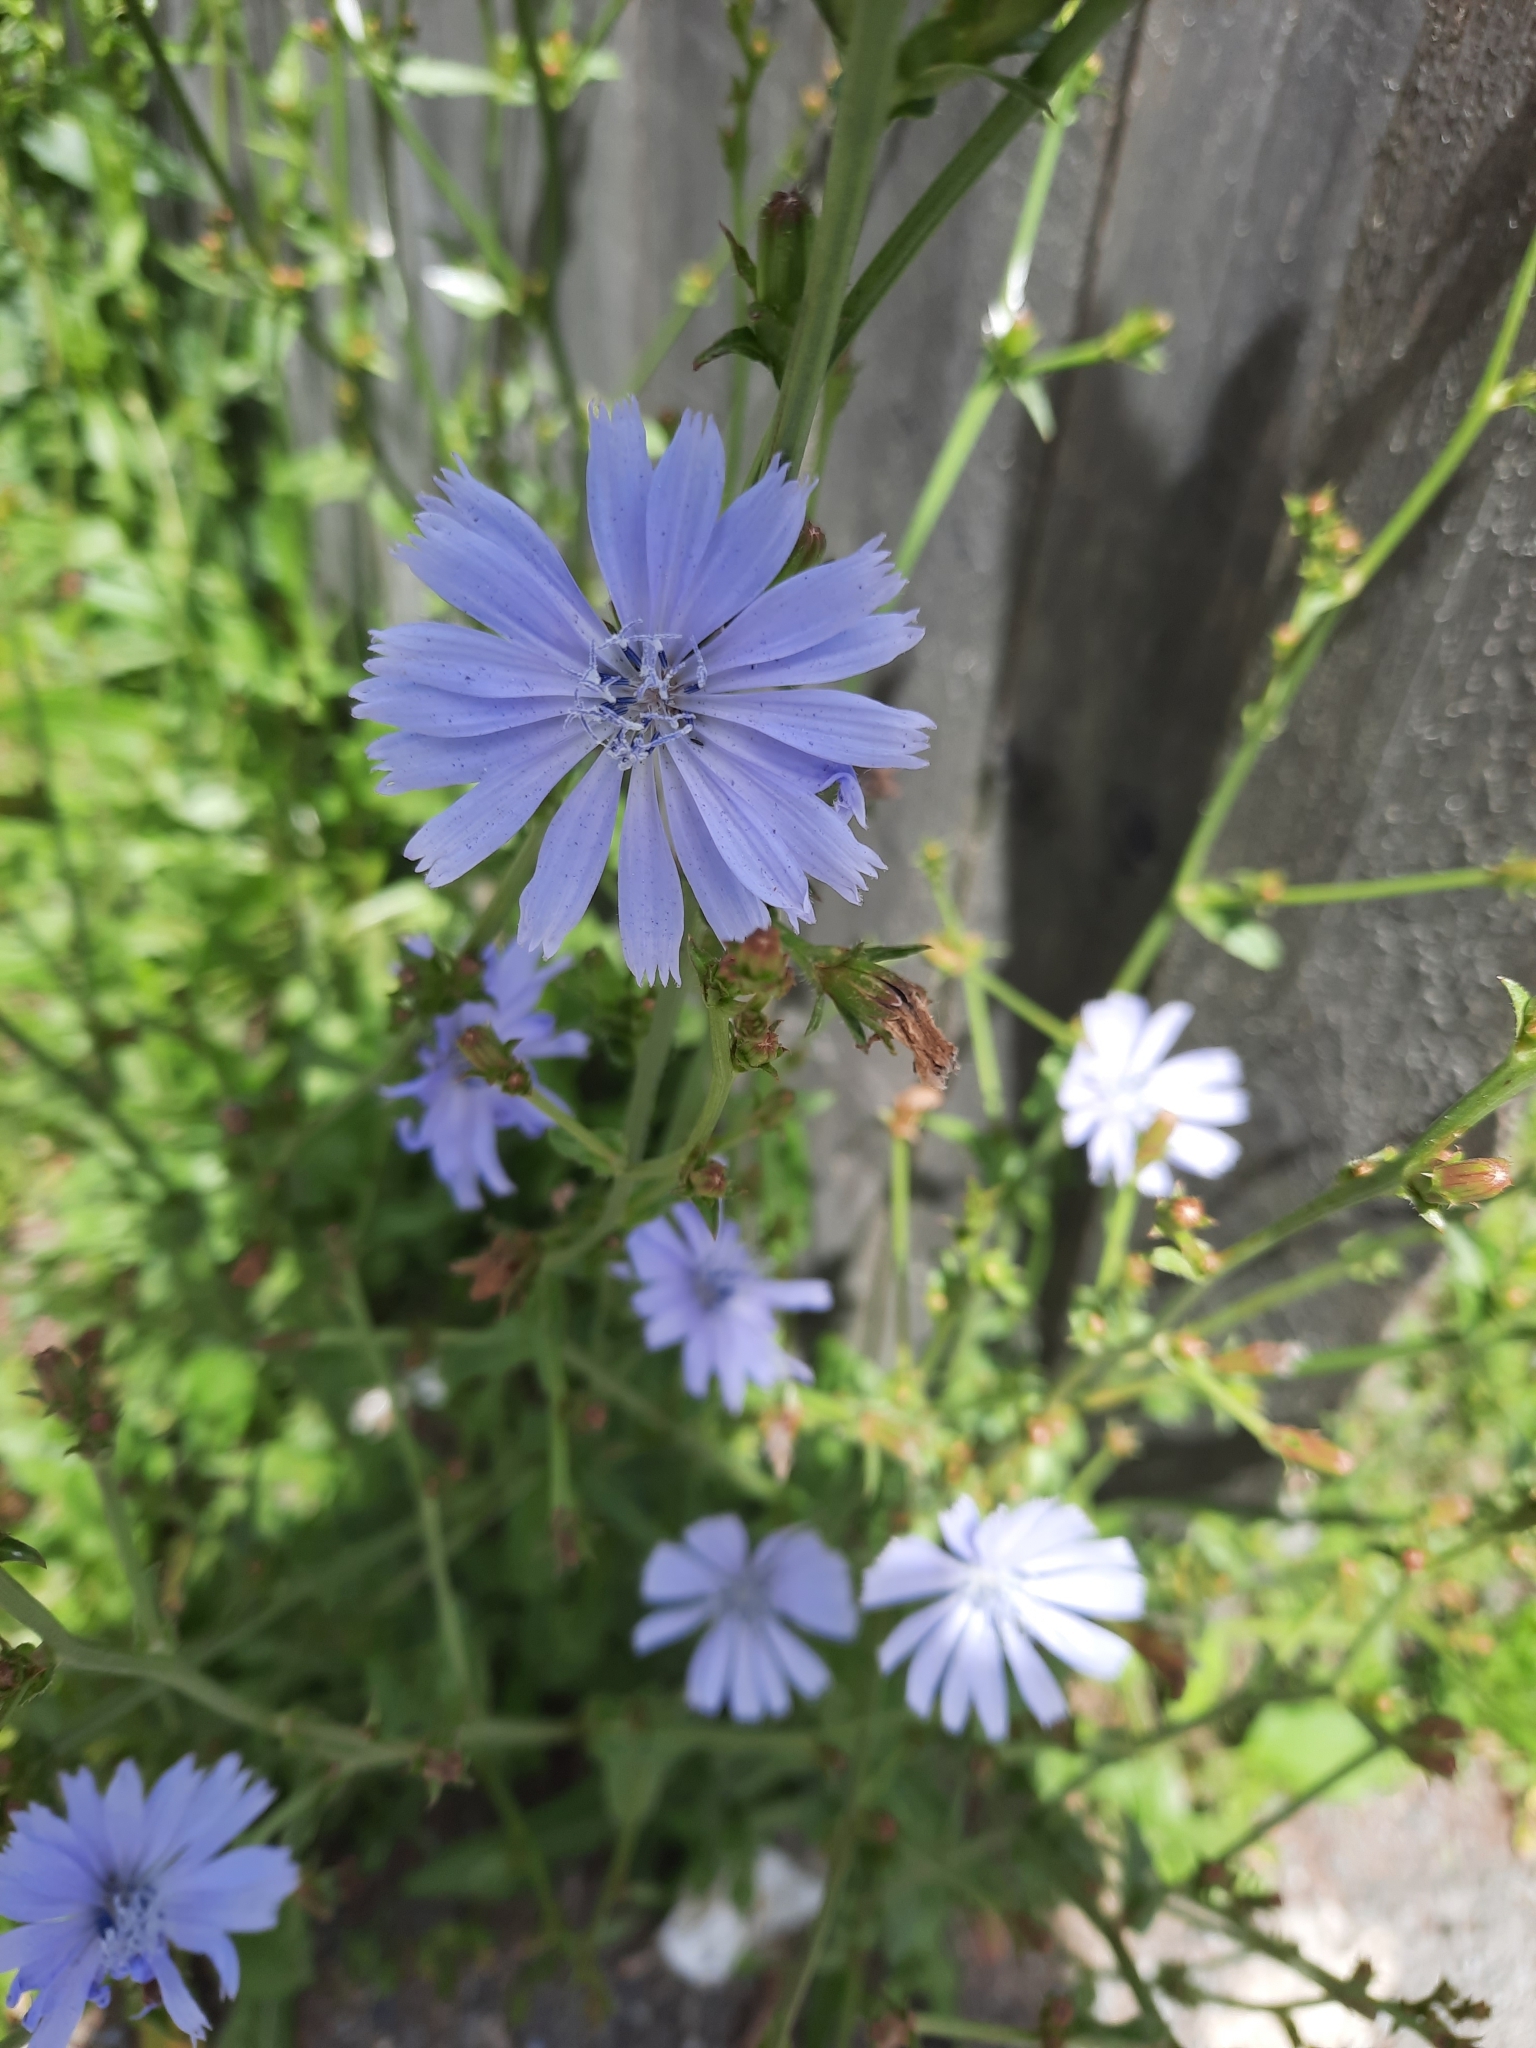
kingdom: Plantae
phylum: Tracheophyta
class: Magnoliopsida
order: Asterales
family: Asteraceae
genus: Cichorium
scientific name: Cichorium intybus
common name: Chicory
